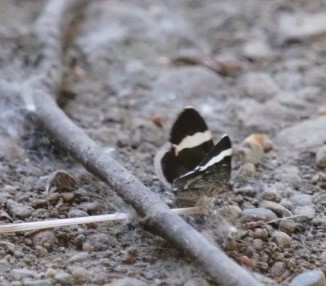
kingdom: Animalia
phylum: Arthropoda
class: Insecta
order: Lepidoptera
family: Geometridae
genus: Trichodezia
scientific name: Trichodezia albovittata
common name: White striped black
